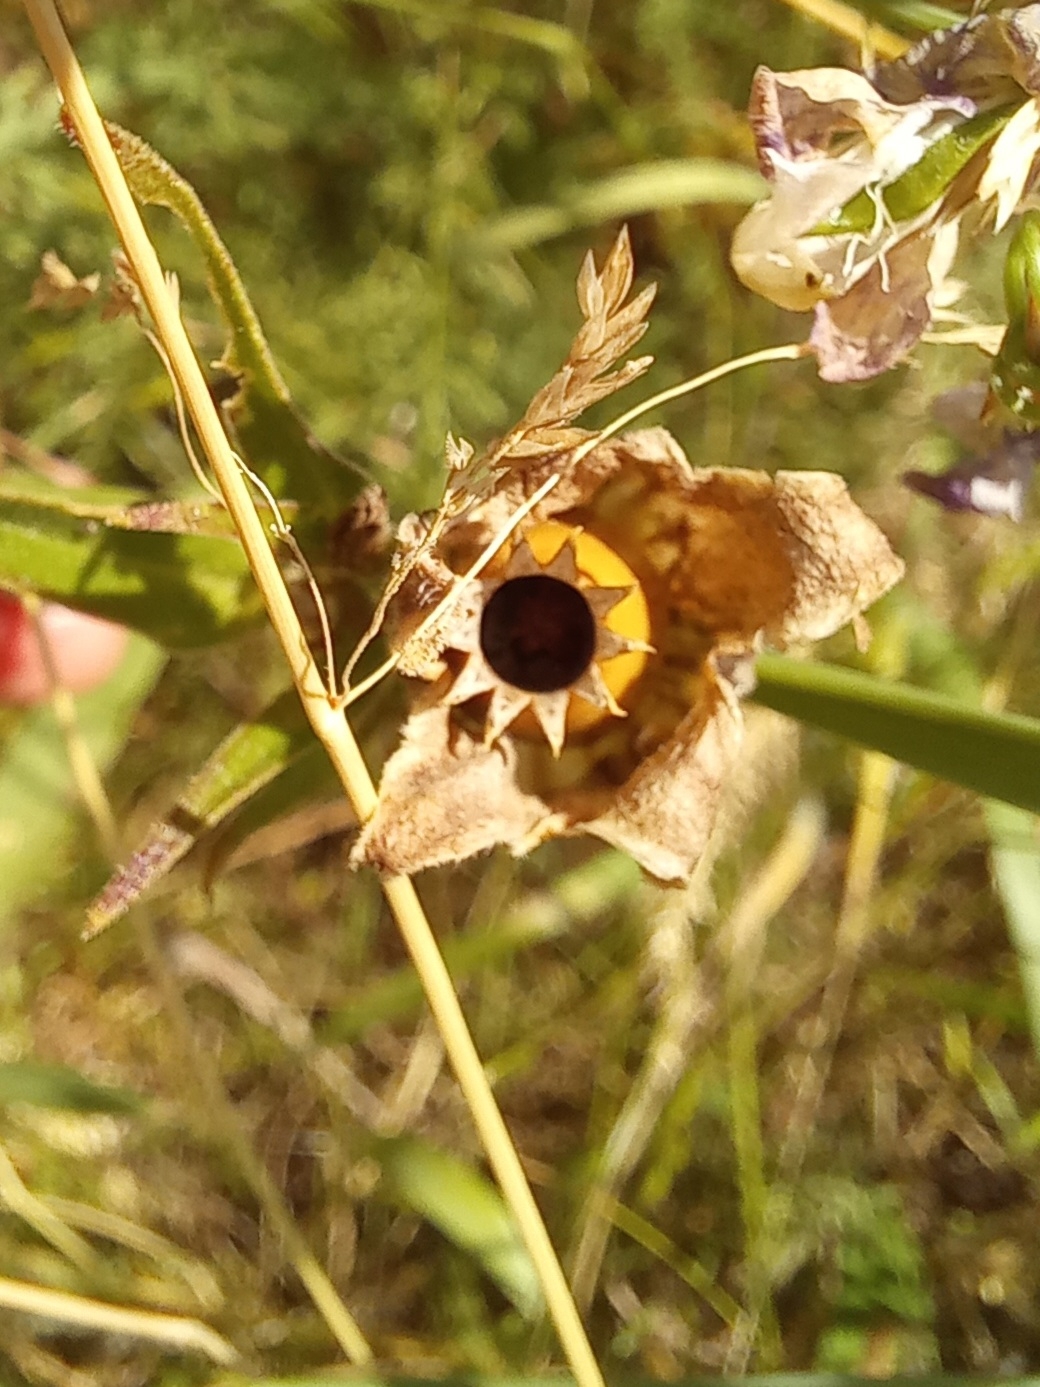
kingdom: Plantae
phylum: Tracheophyta
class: Magnoliopsida
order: Caryophyllales
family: Caryophyllaceae
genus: Silene
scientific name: Silene latifolia
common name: White campion
